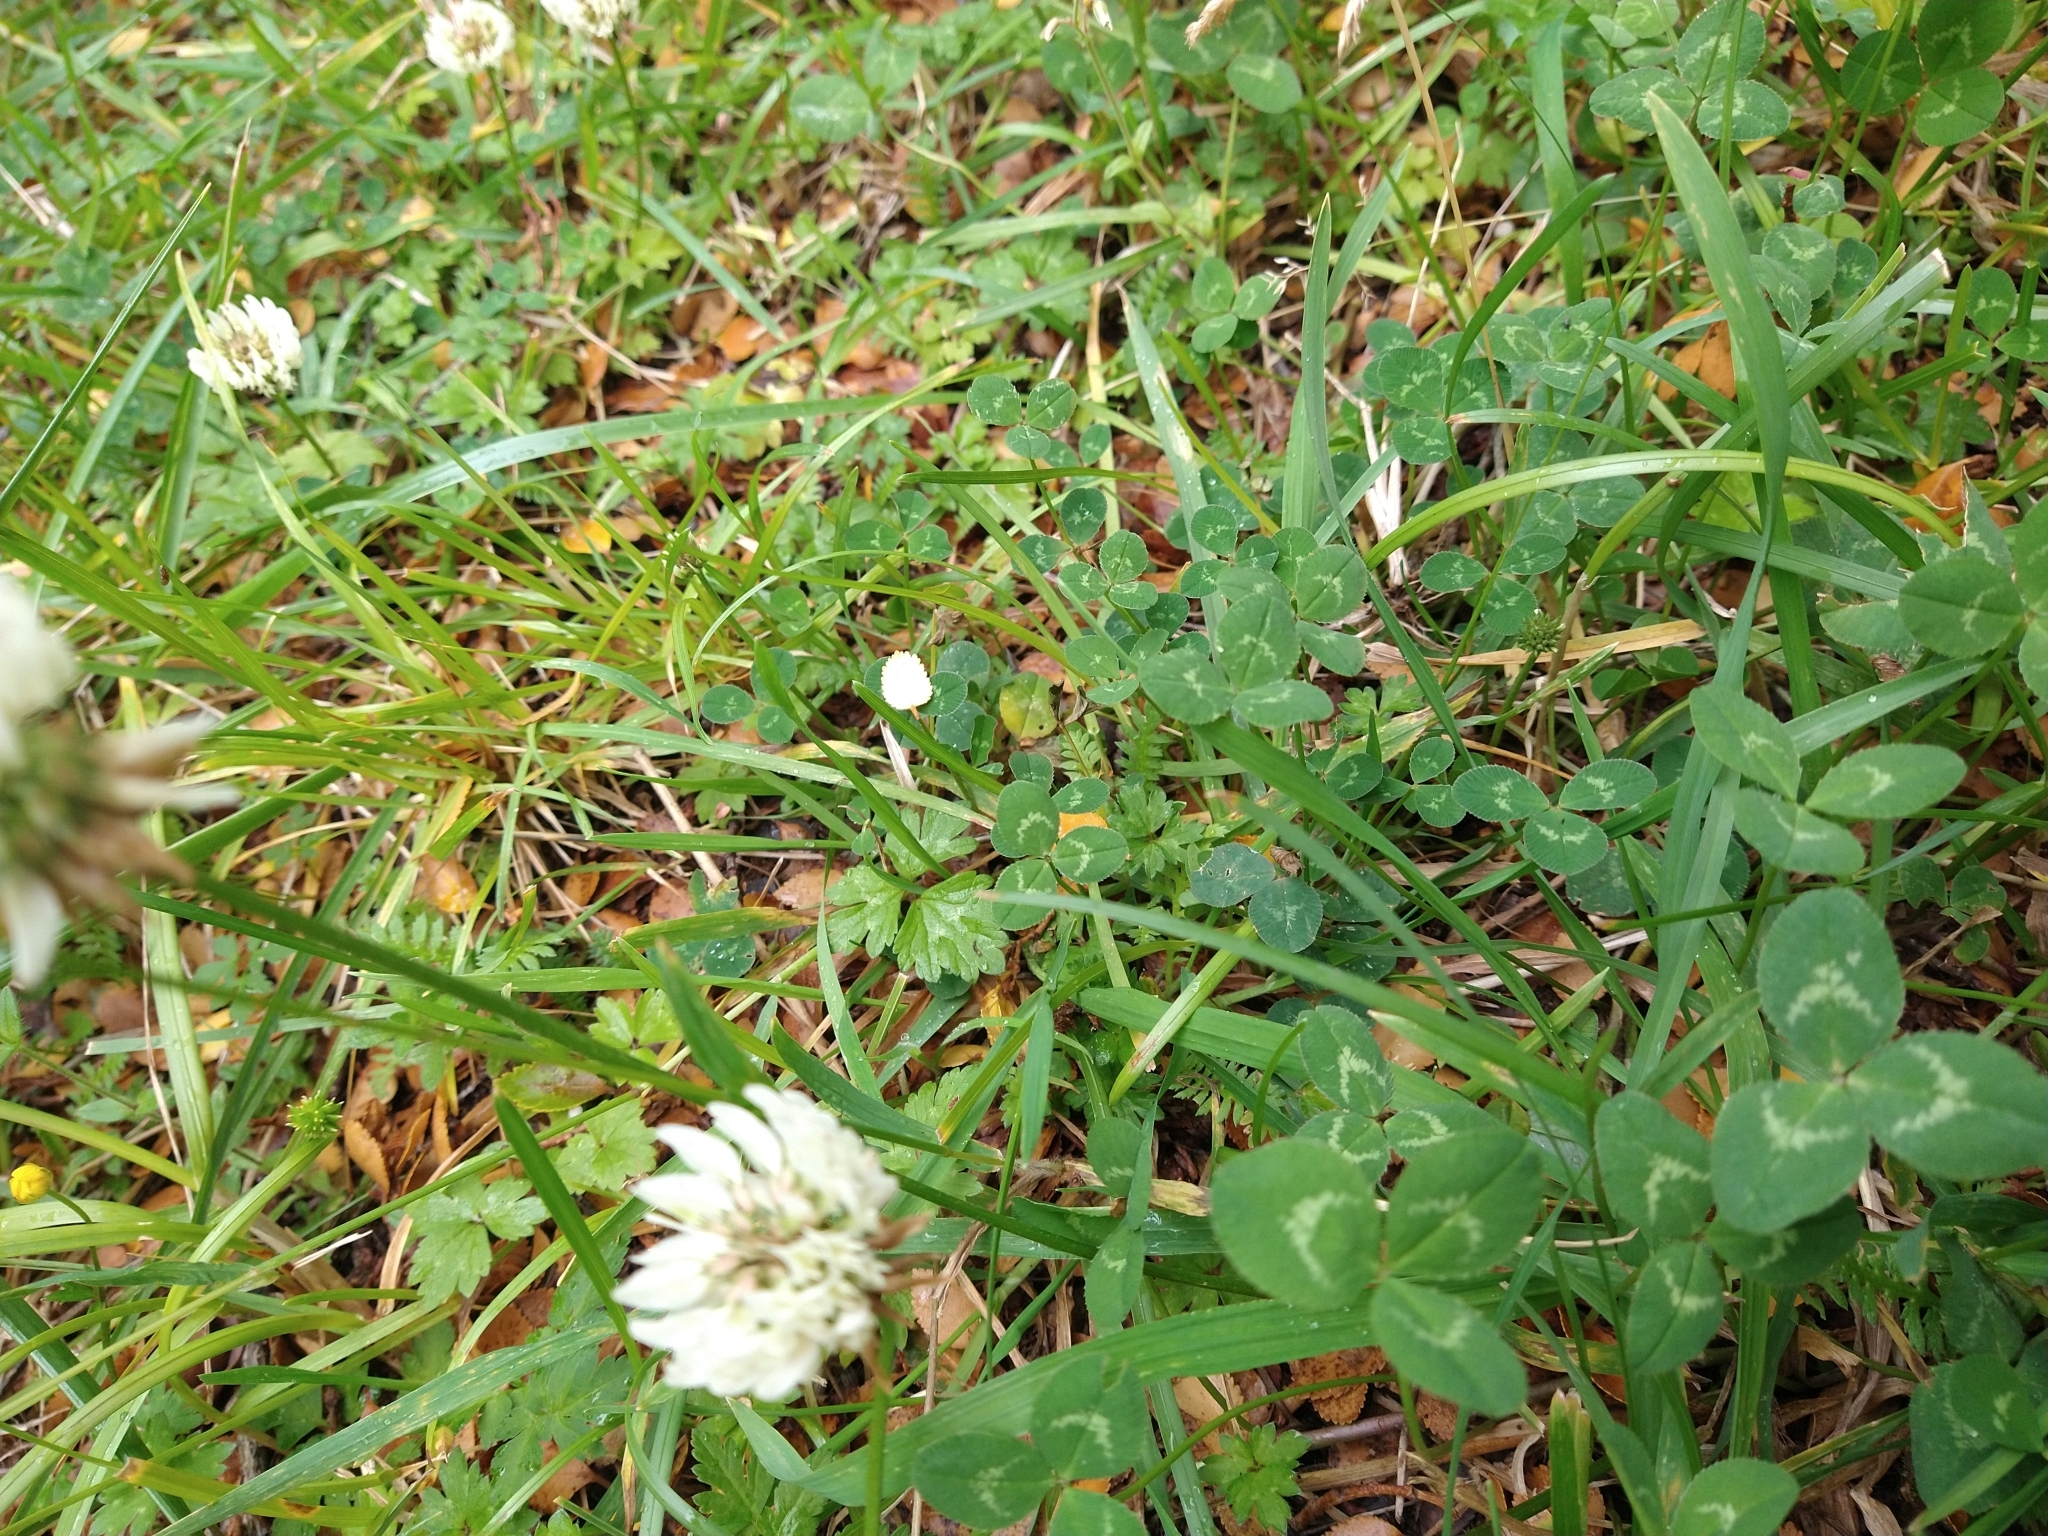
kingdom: Plantae
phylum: Tracheophyta
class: Magnoliopsida
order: Fabales
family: Fabaceae
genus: Trifolium
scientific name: Trifolium repens
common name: White clover
